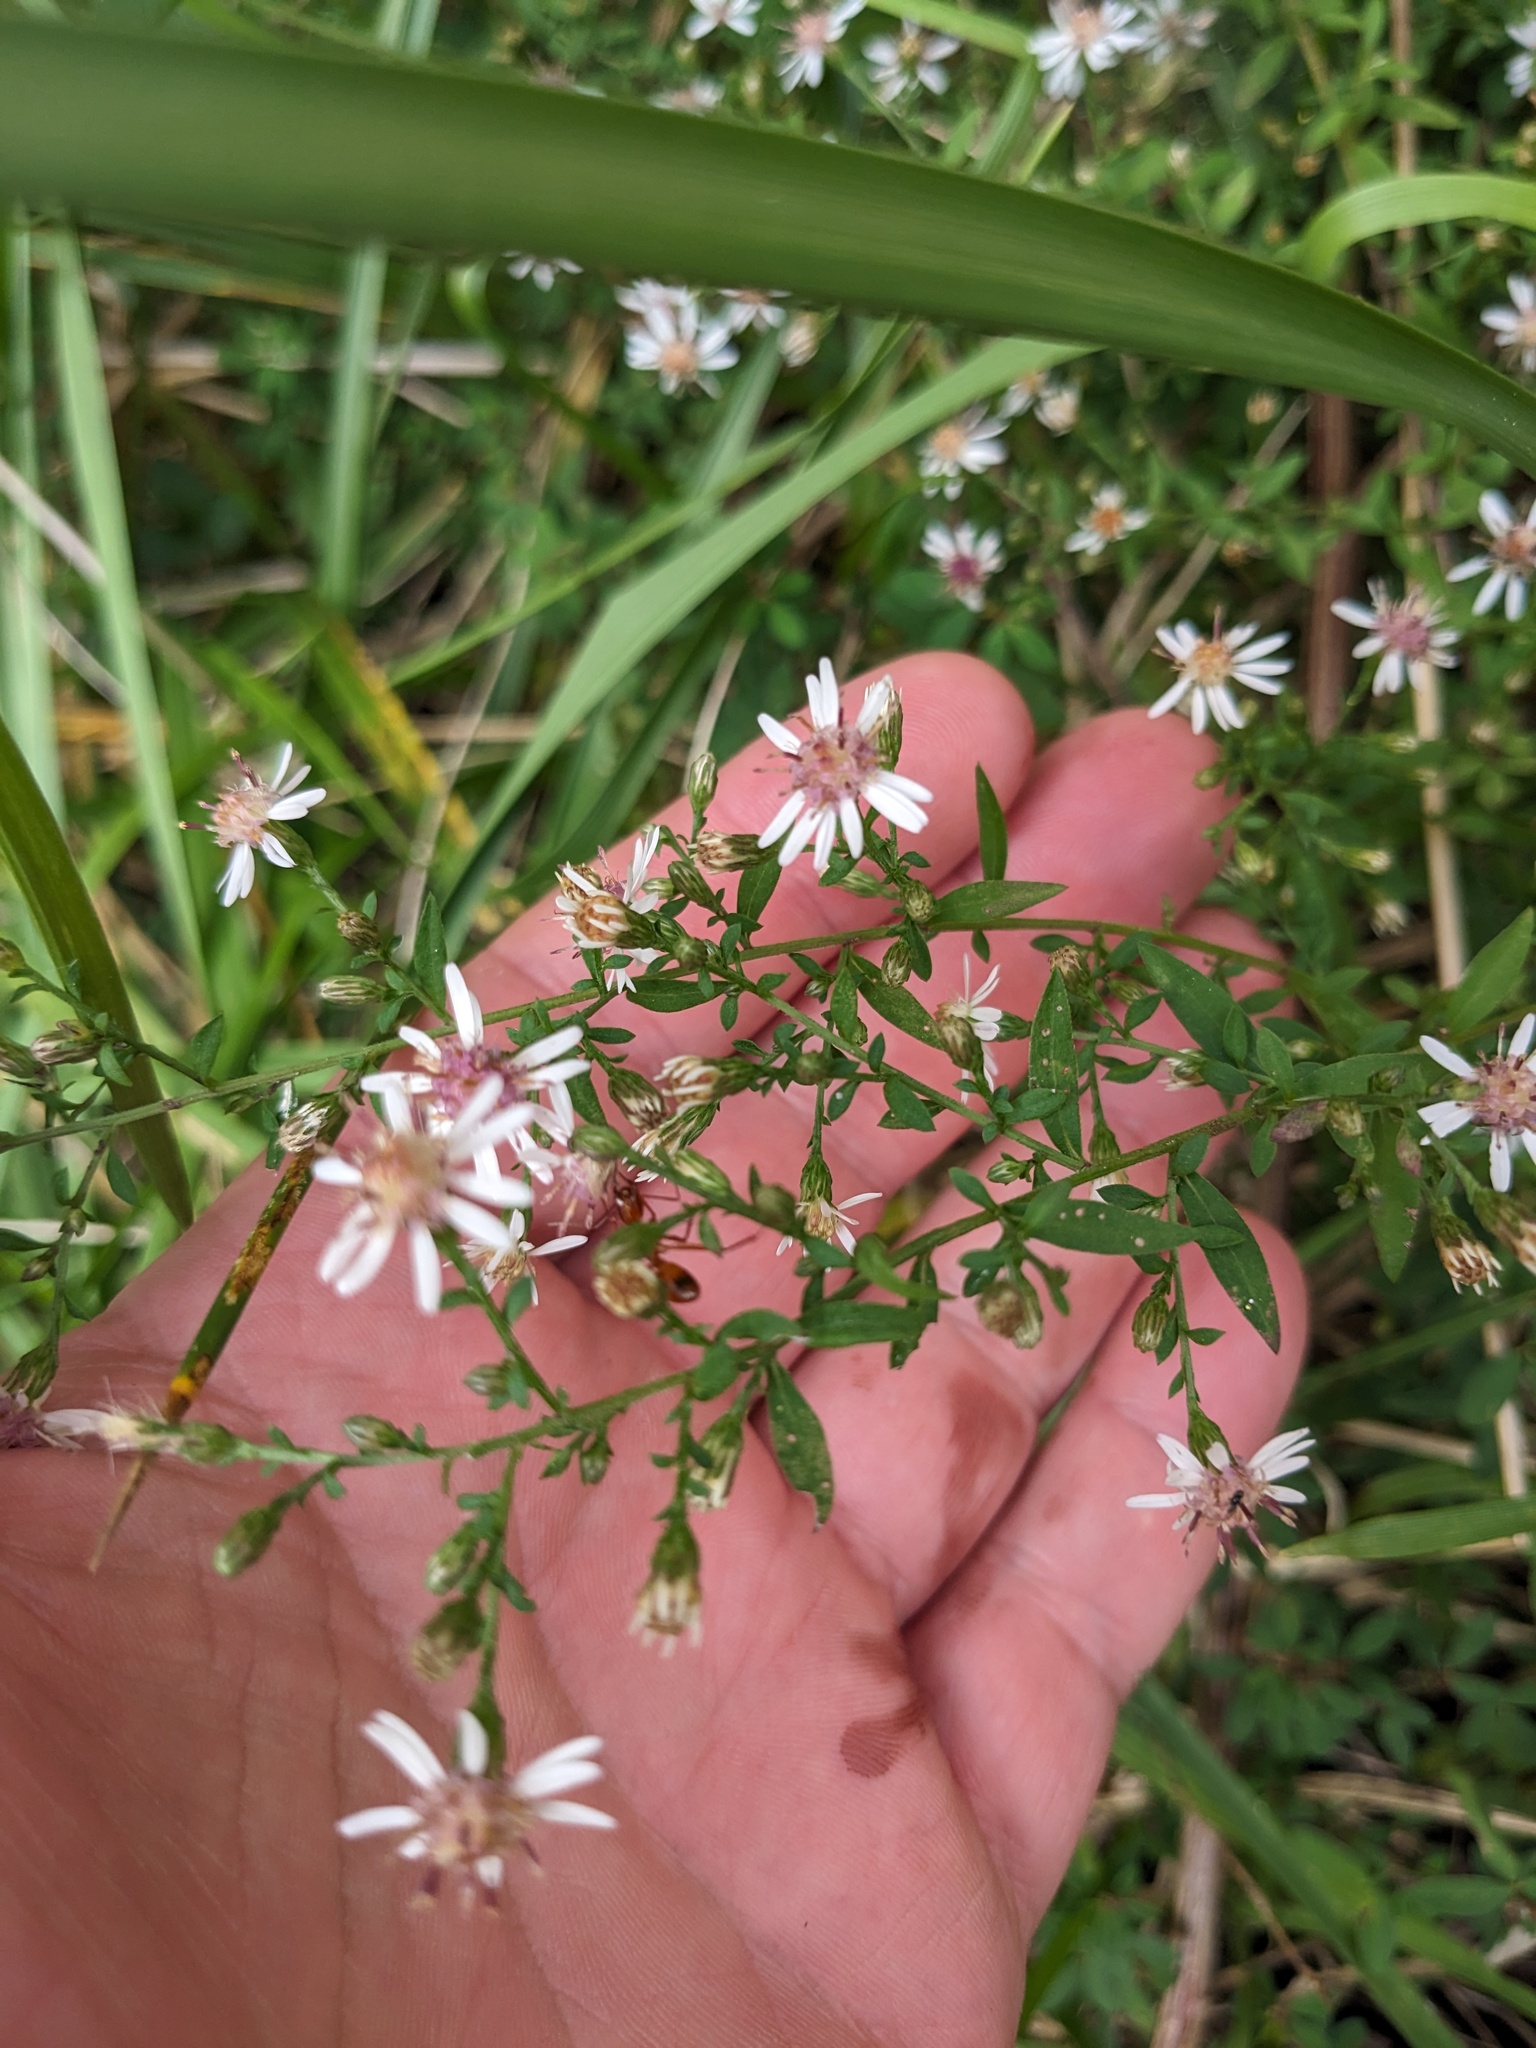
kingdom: Plantae
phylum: Tracheophyta
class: Magnoliopsida
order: Asterales
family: Asteraceae
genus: Symphyotrichum
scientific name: Symphyotrichum lateriflorum
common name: Calico aster
